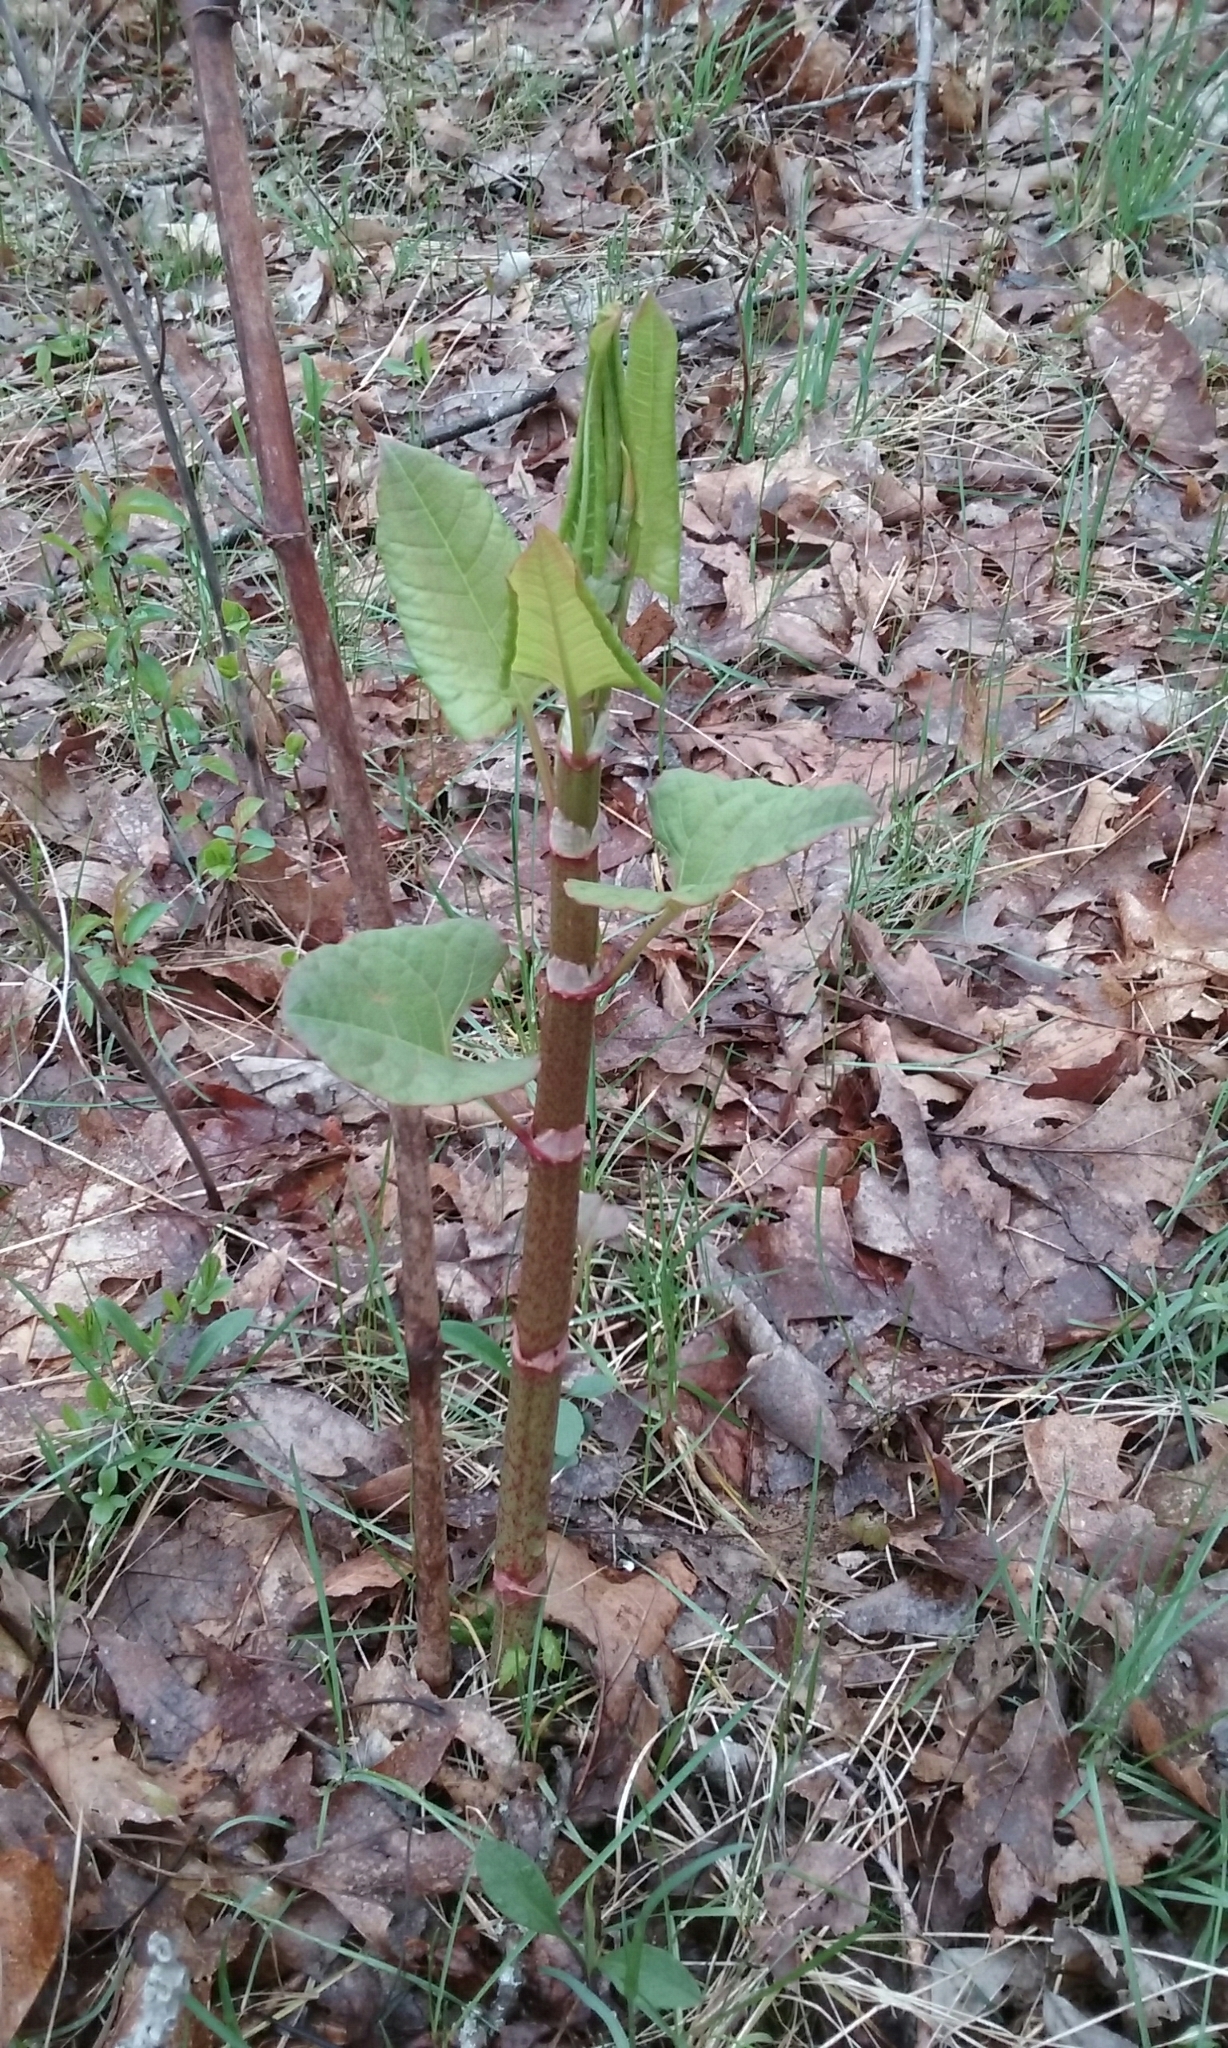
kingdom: Plantae
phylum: Tracheophyta
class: Magnoliopsida
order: Caryophyllales
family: Polygonaceae
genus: Reynoutria
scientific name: Reynoutria japonica
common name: Japanese knotweed
